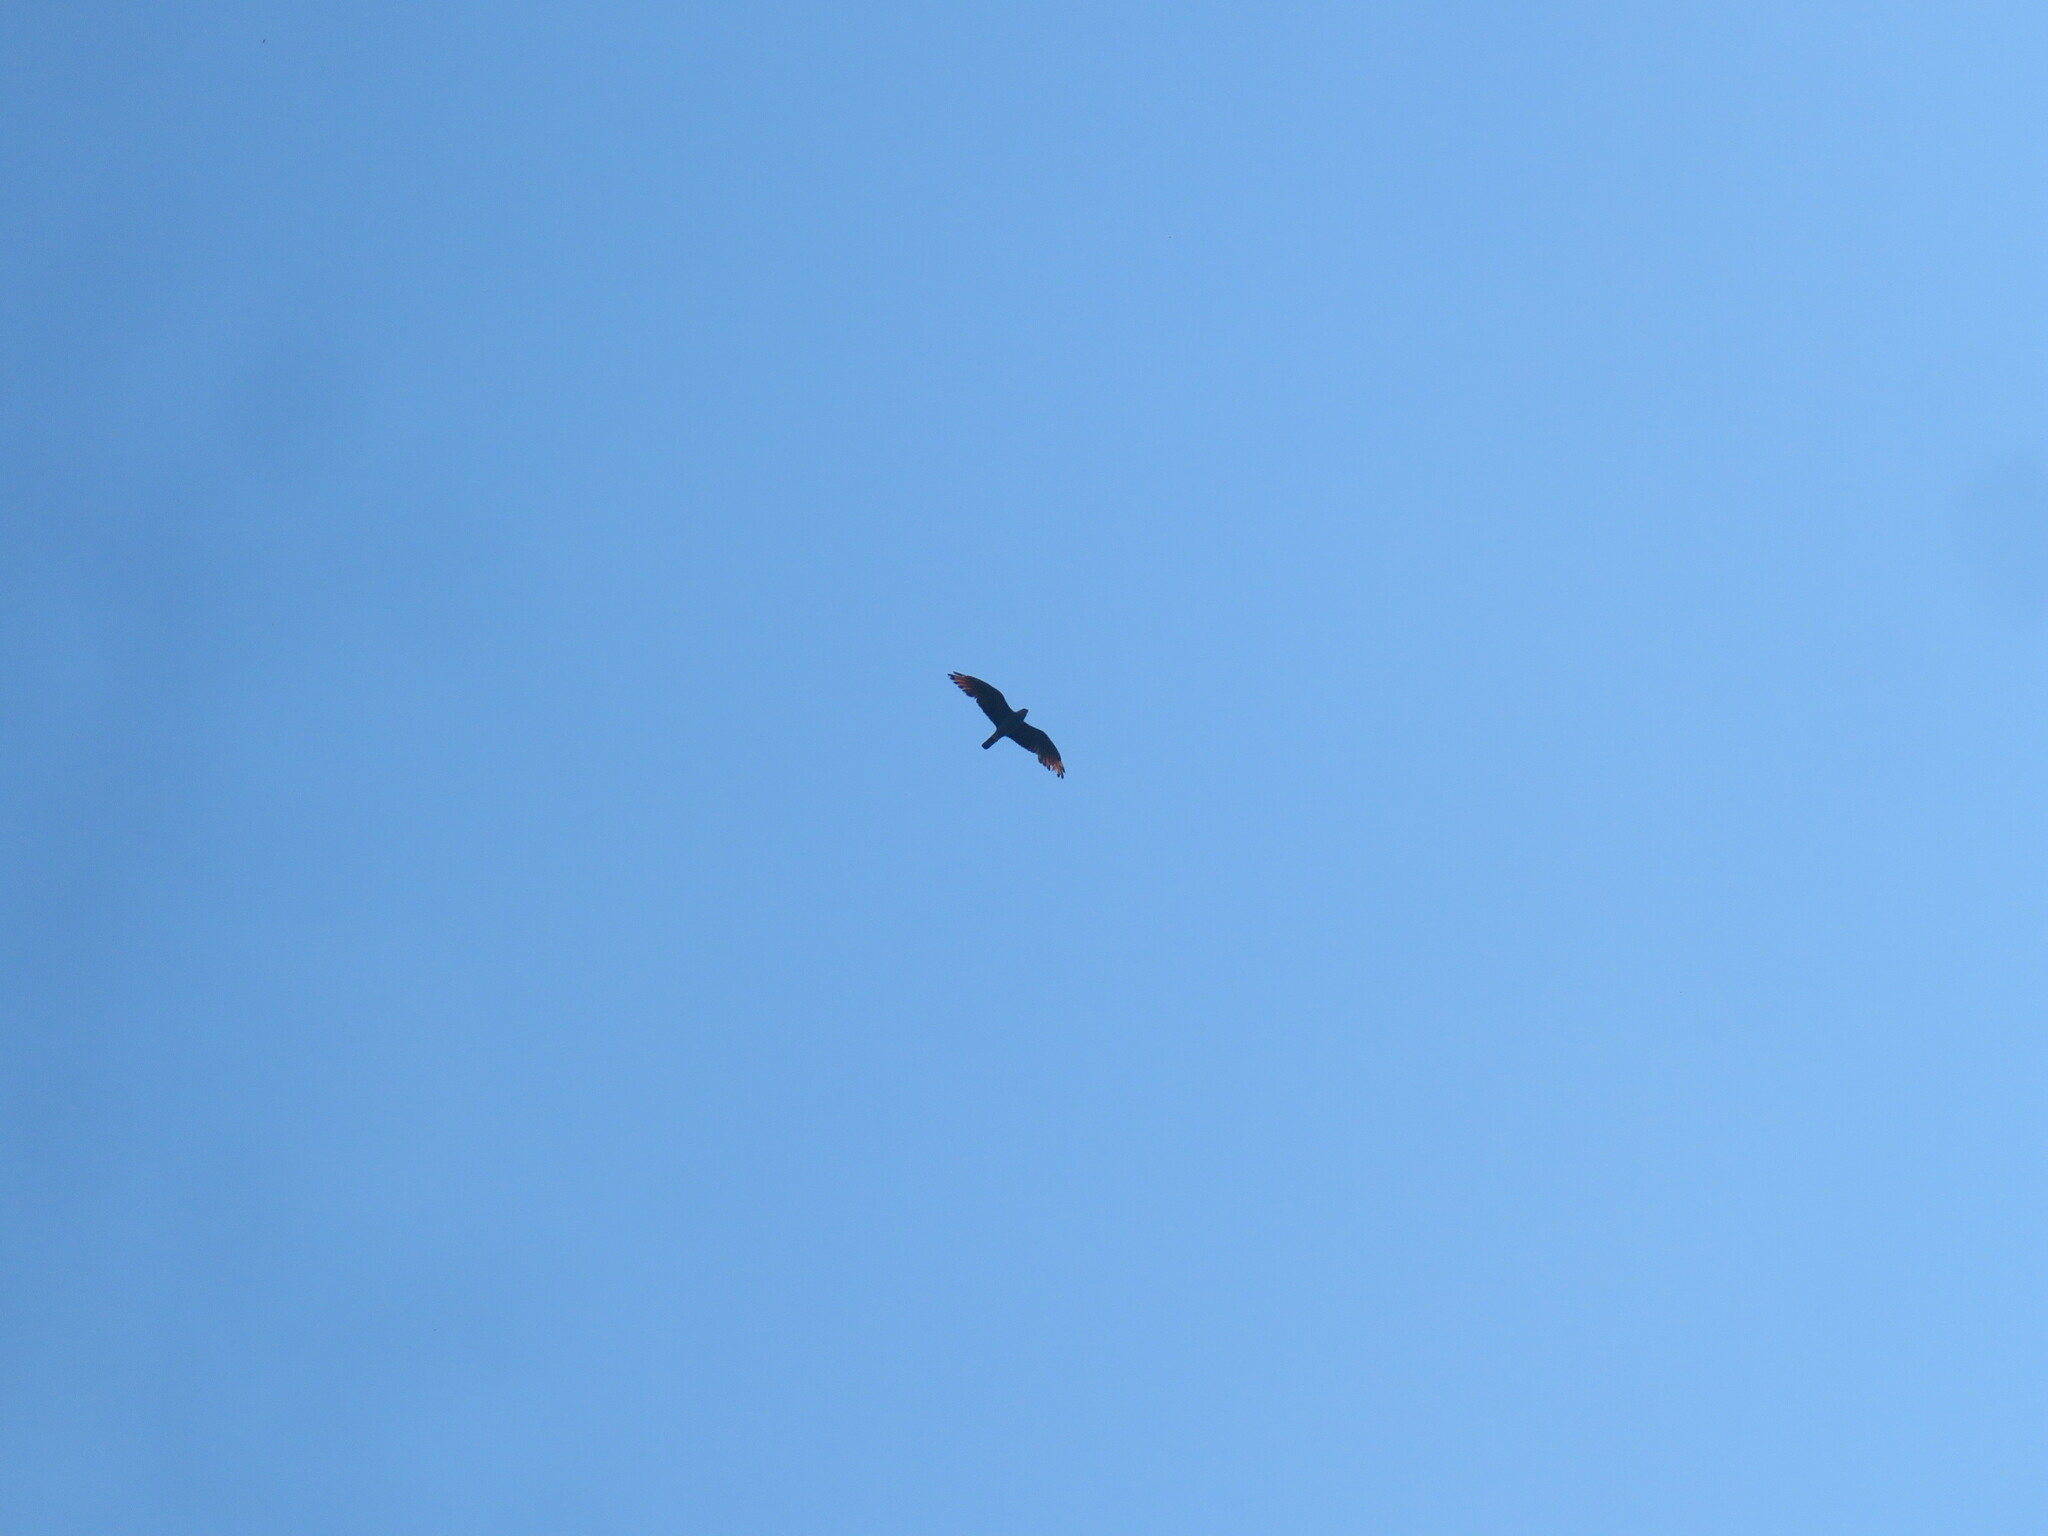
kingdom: Animalia
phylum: Chordata
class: Aves
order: Accipitriformes
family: Accipitridae
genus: Ictinia
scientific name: Ictinia plumbea
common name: Plumbeous kite
